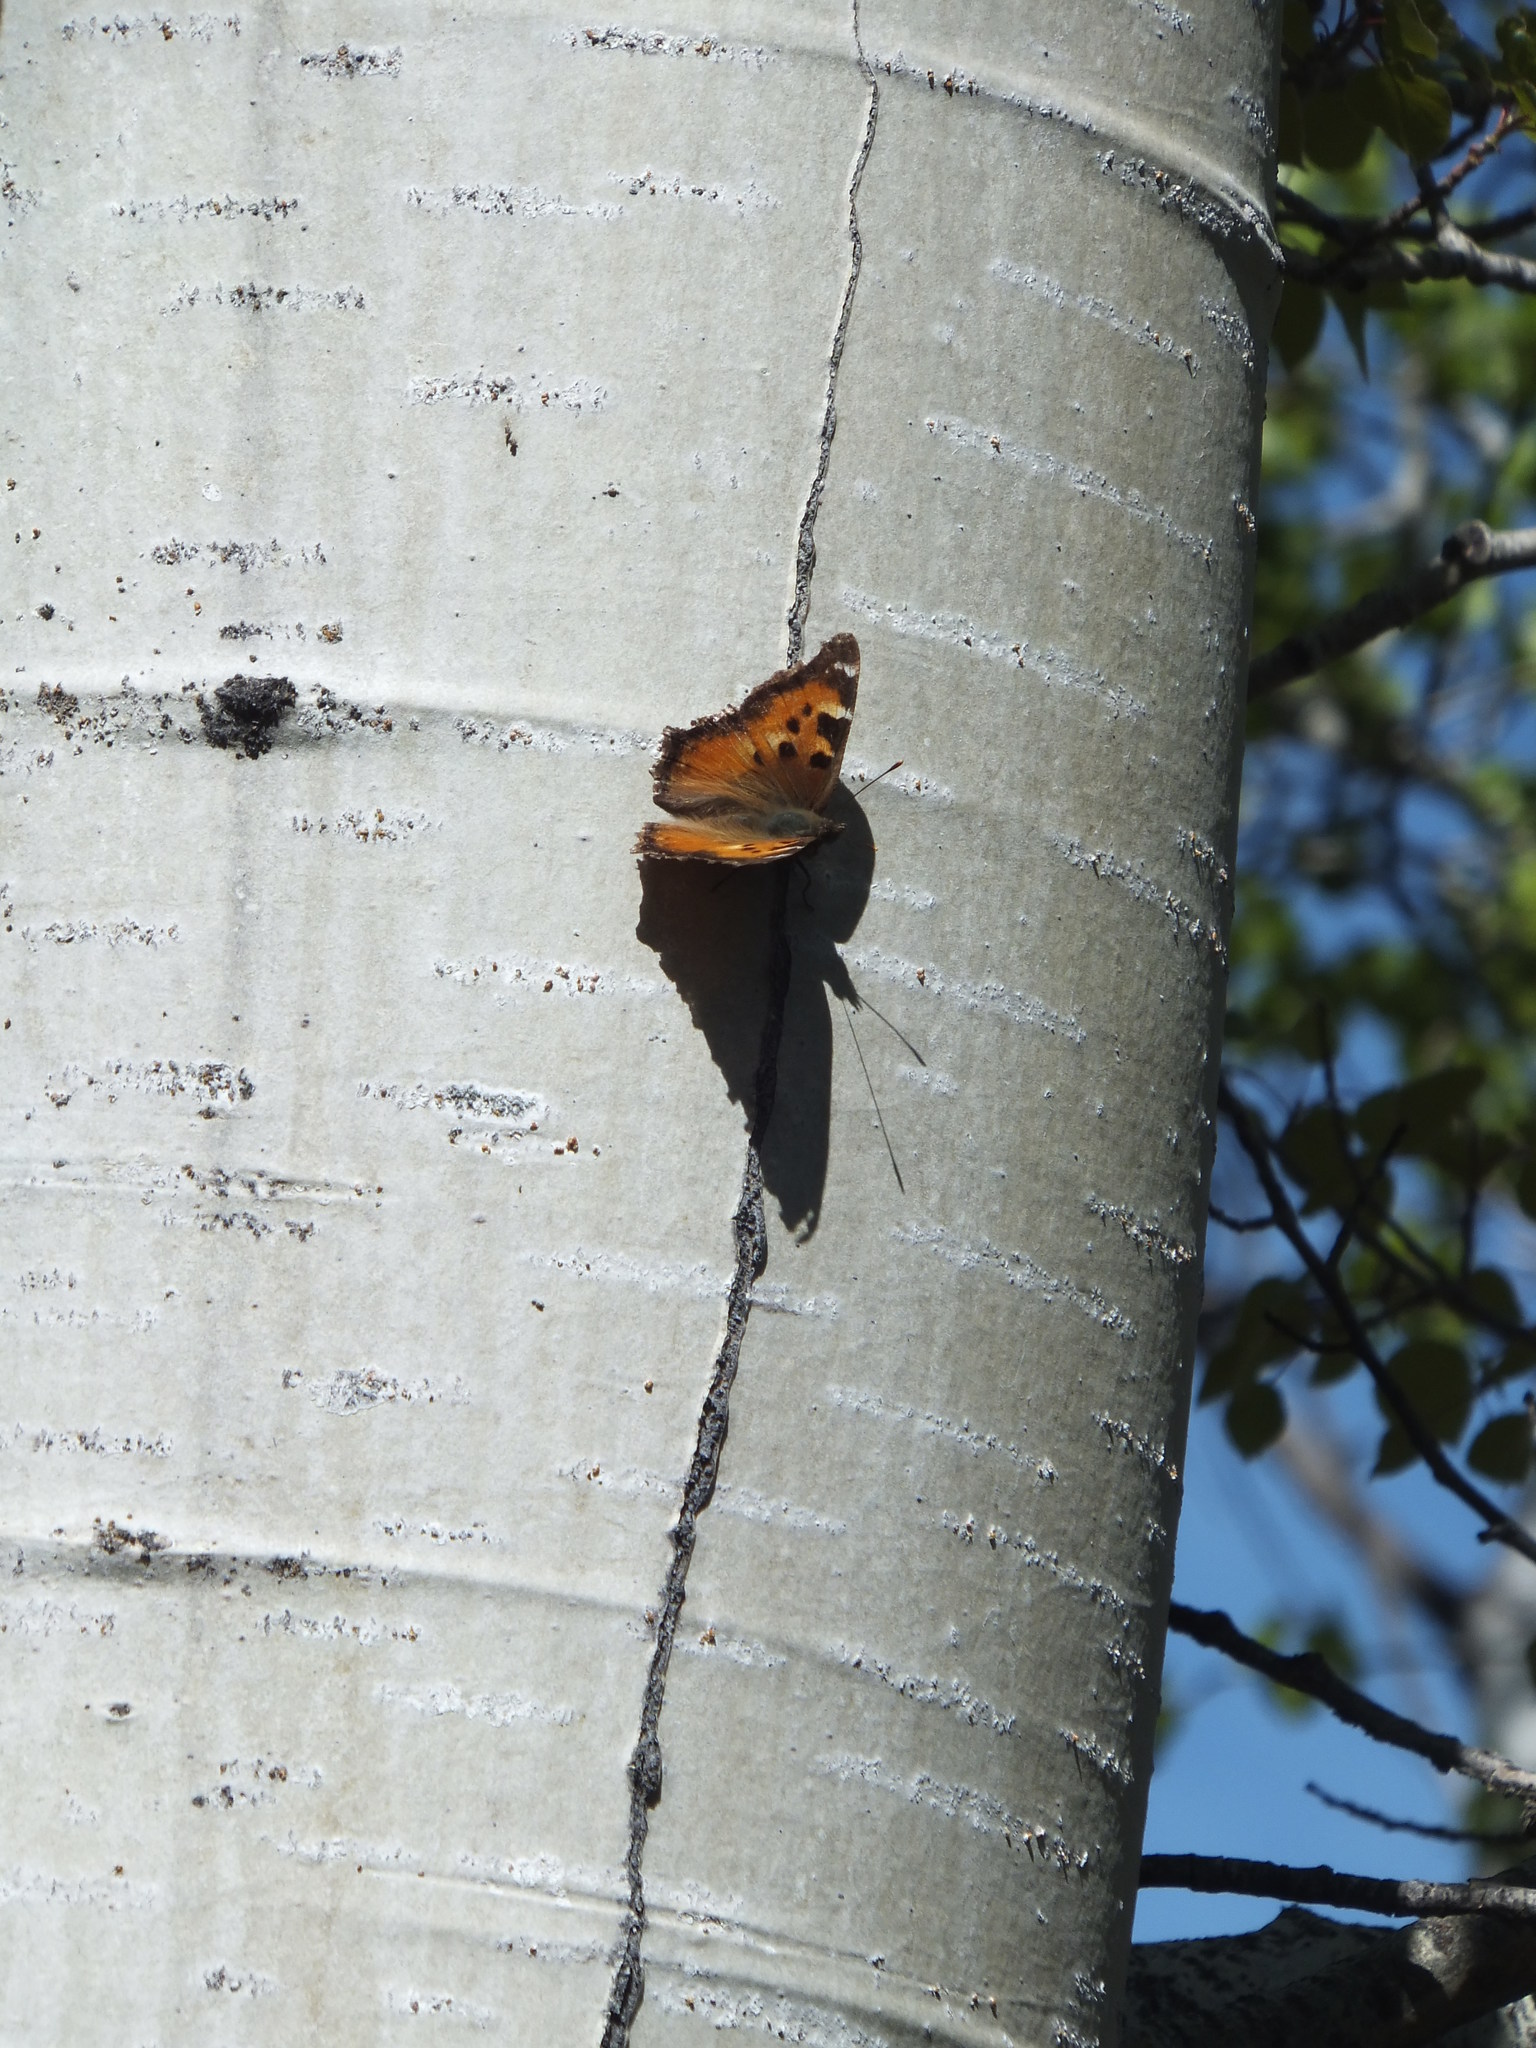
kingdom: Animalia
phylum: Arthropoda
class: Insecta
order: Lepidoptera
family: Nymphalidae
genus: Nymphalis
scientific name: Nymphalis californica
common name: California tortoiseshell
